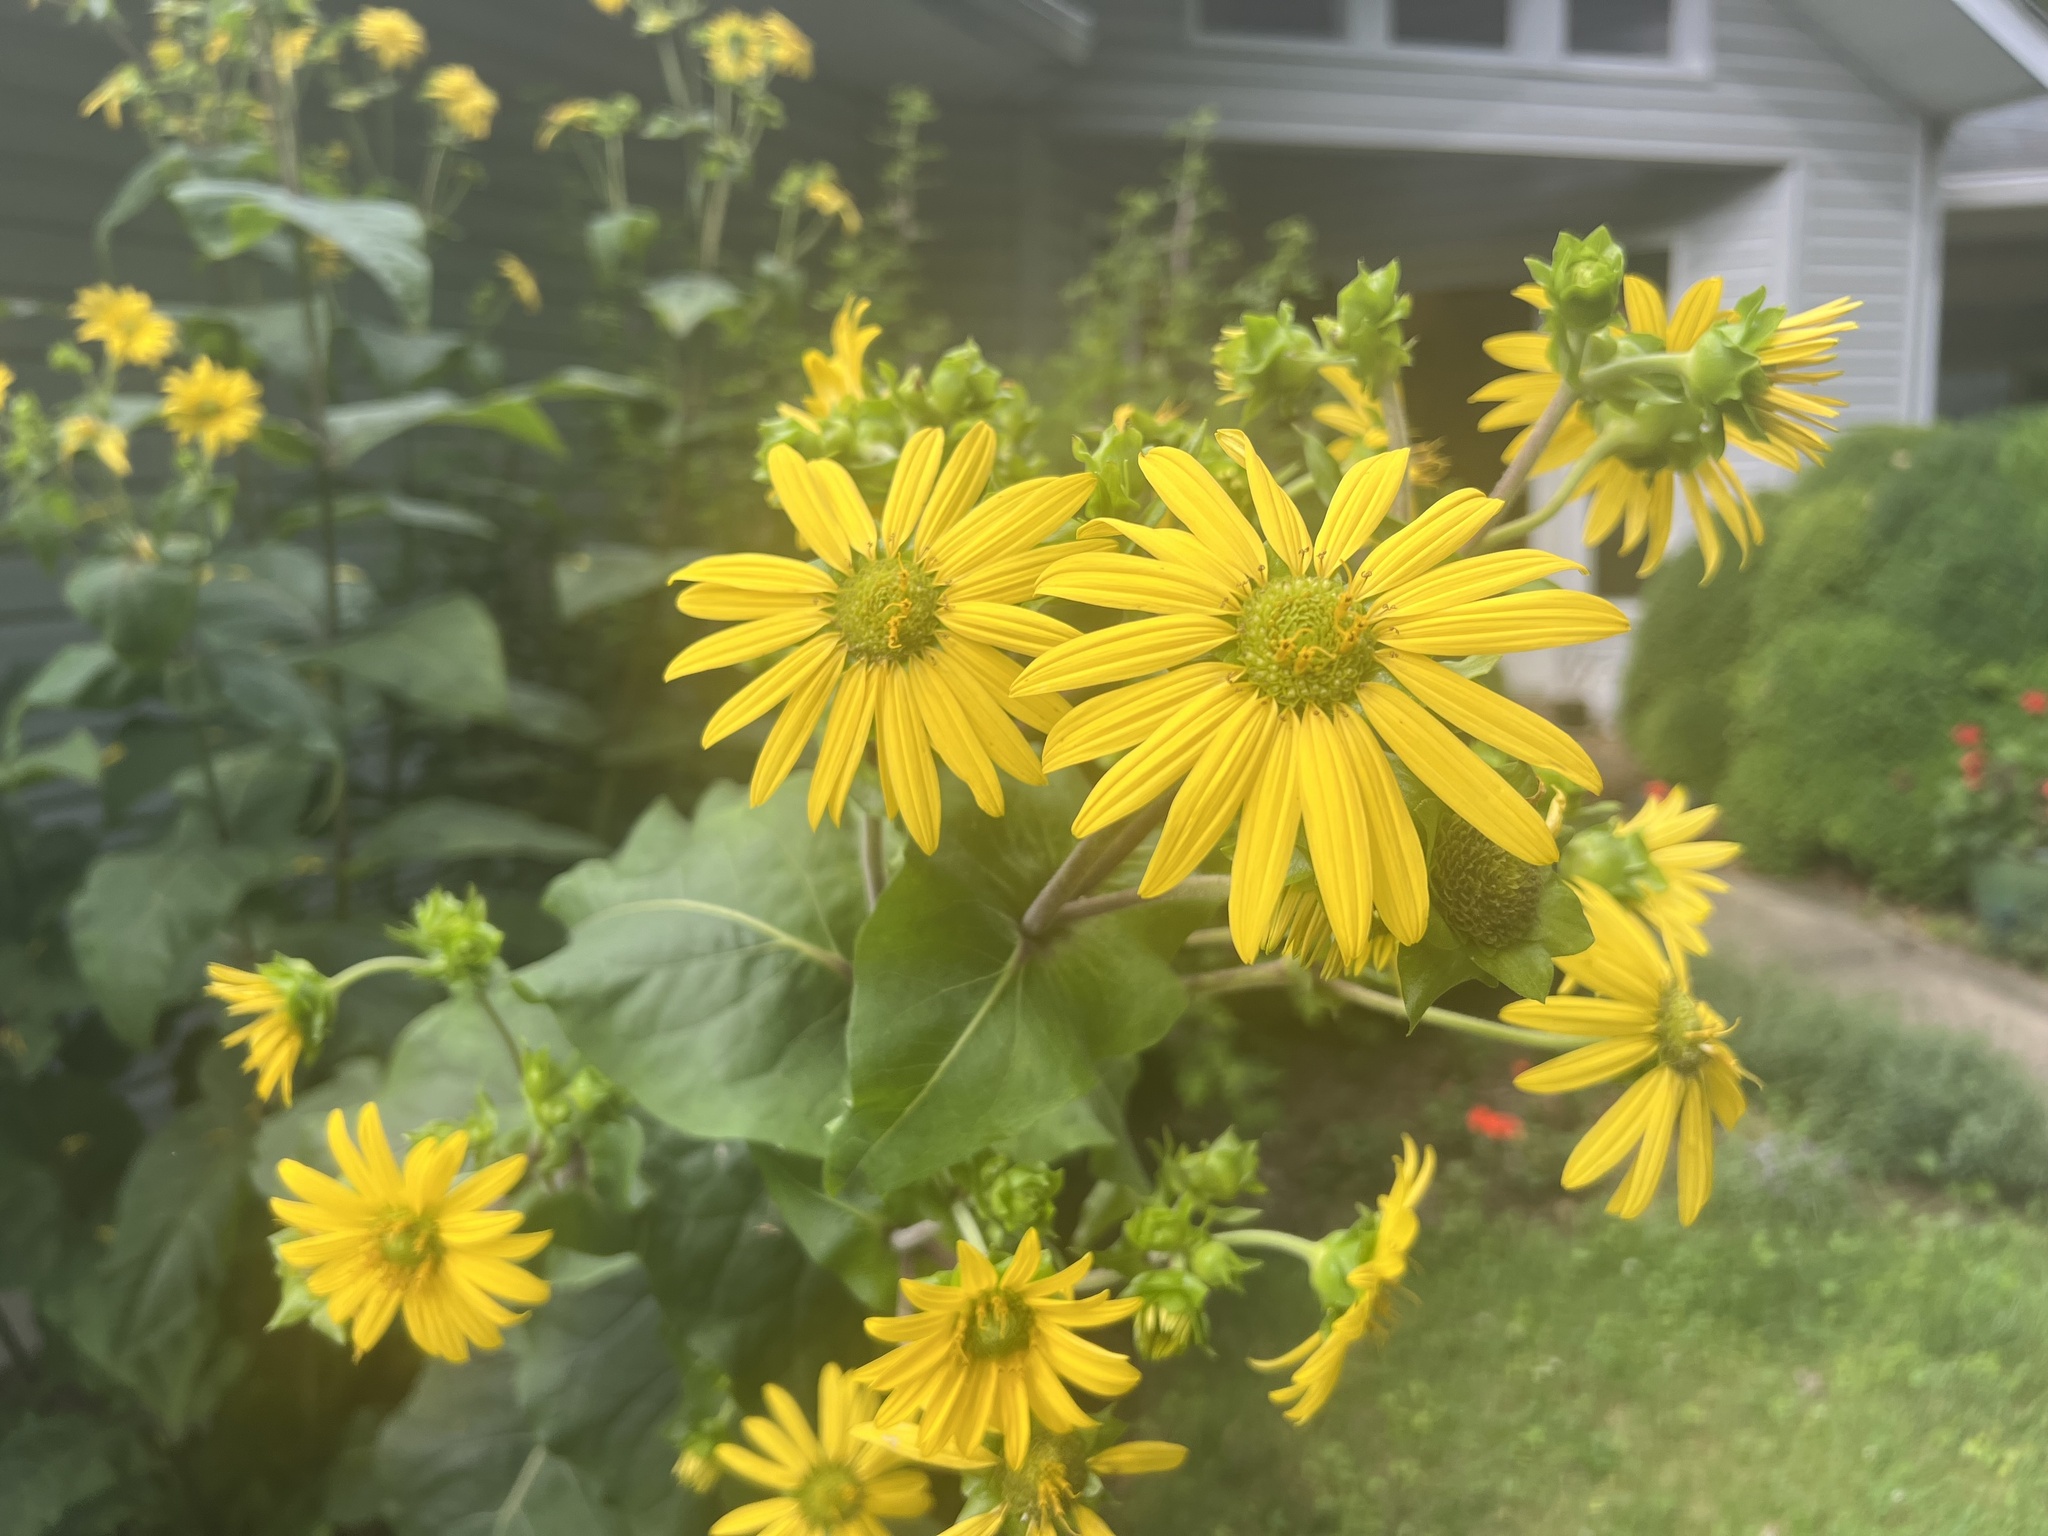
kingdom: Plantae
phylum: Tracheophyta
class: Magnoliopsida
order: Asterales
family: Asteraceae
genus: Silphium
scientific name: Silphium perfoliatum
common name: Cup-plant
